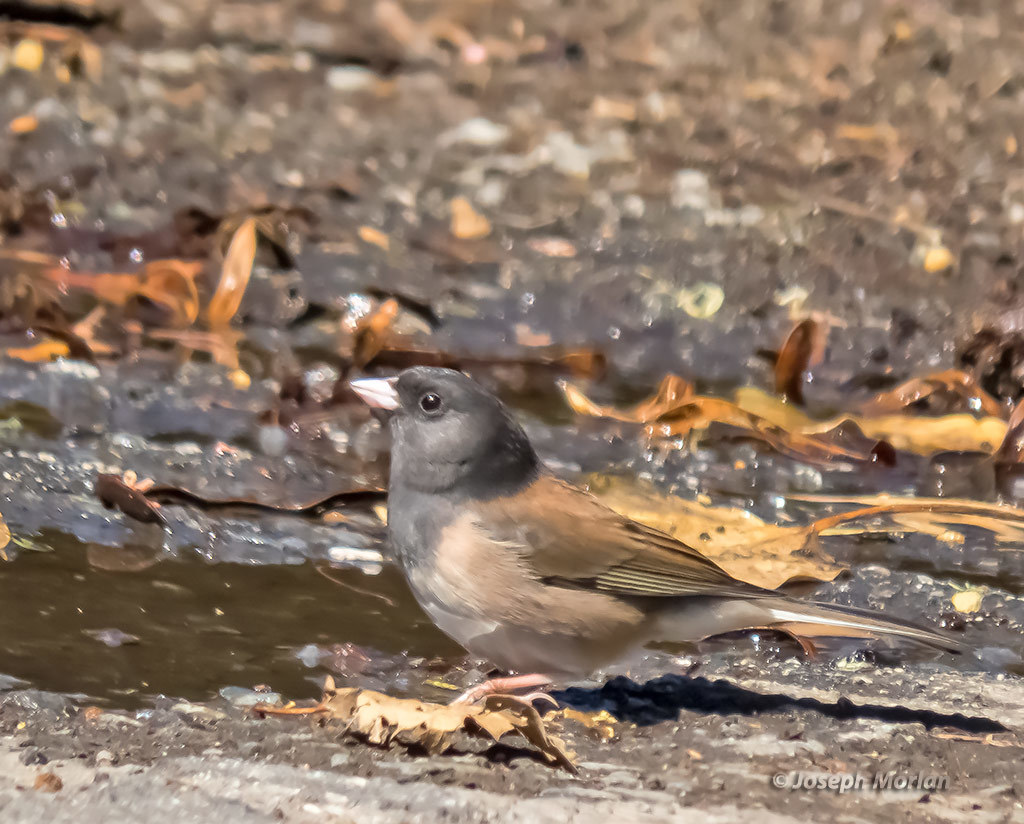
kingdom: Animalia
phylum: Chordata
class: Aves
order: Passeriformes
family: Passerellidae
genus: Junco
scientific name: Junco hyemalis
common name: Dark-eyed junco
